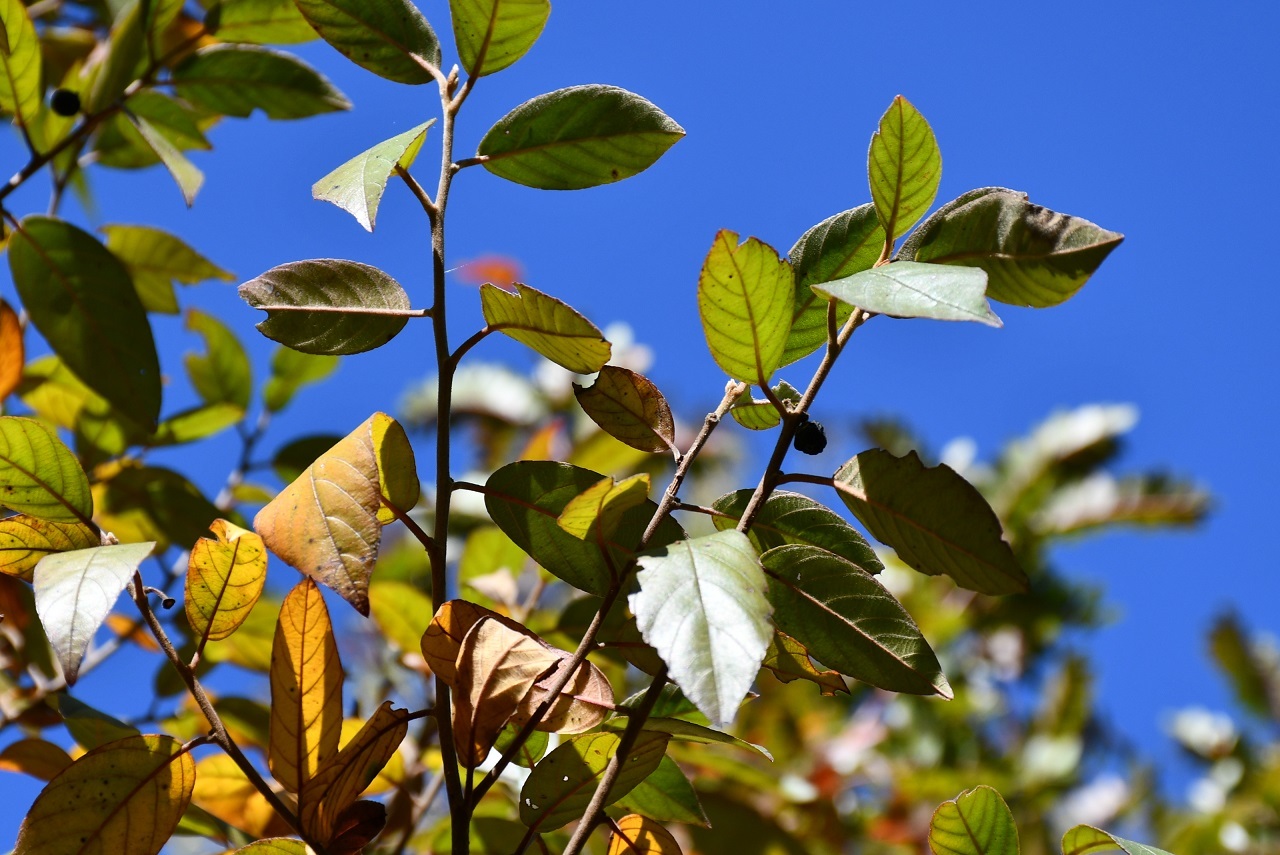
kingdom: Plantae
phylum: Tracheophyta
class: Magnoliopsida
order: Rosales
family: Rhamnaceae
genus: Frangula
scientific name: Frangula mucronata
